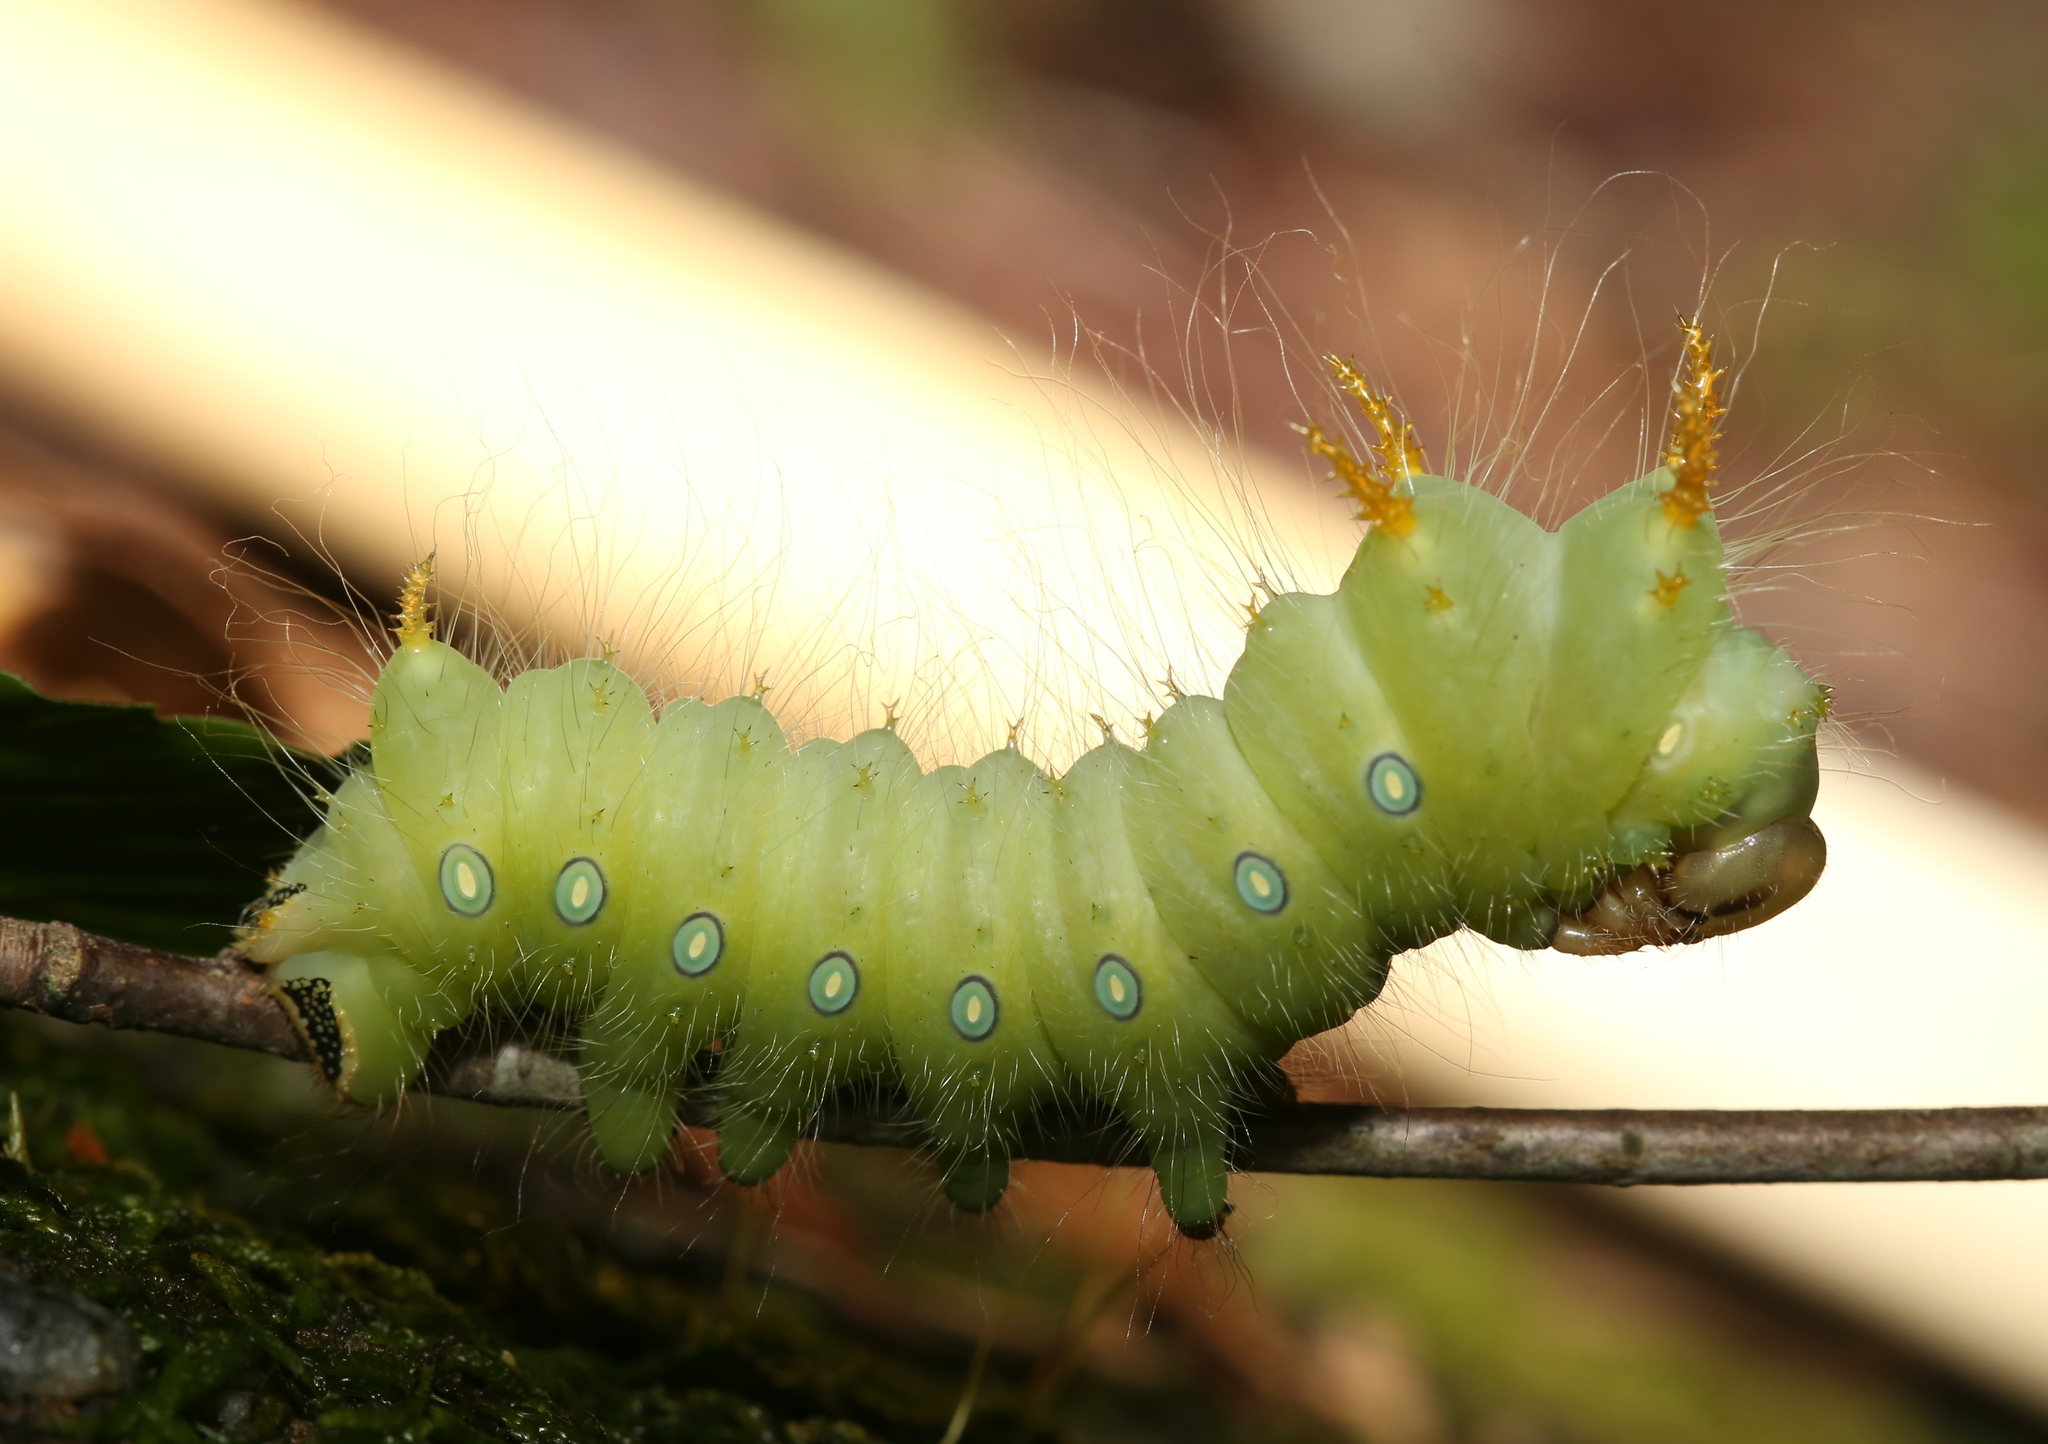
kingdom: Animalia
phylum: Arthropoda
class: Insecta
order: Lepidoptera
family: Saturniidae
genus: Eacles
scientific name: Eacles imperialis
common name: Imperial moth
